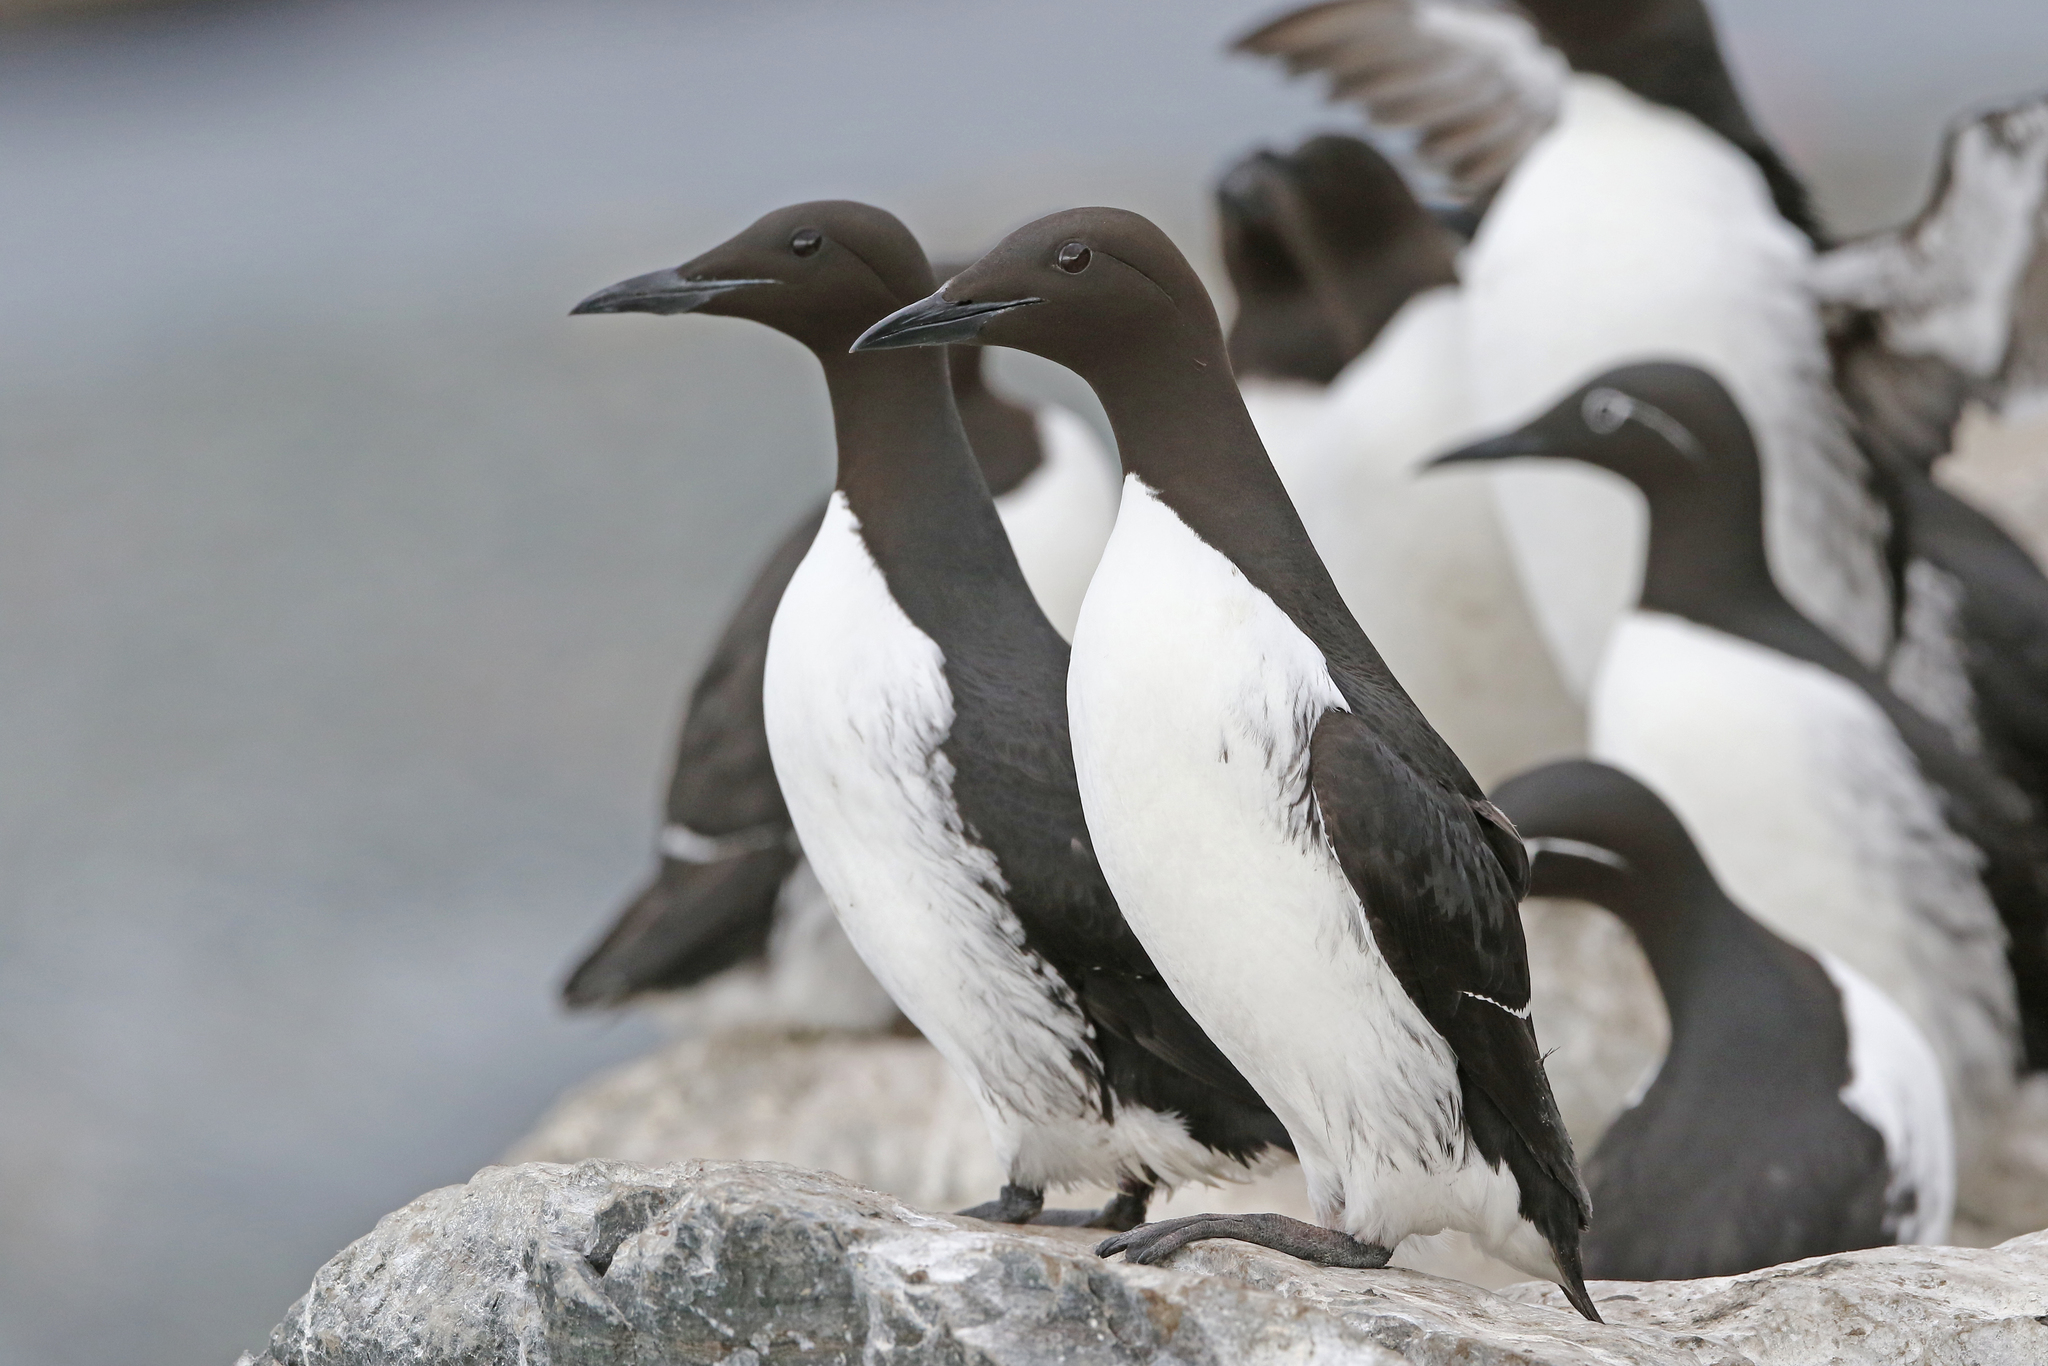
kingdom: Animalia
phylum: Chordata
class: Aves
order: Charadriiformes
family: Alcidae
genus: Uria
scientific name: Uria aalge
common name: Common murre
